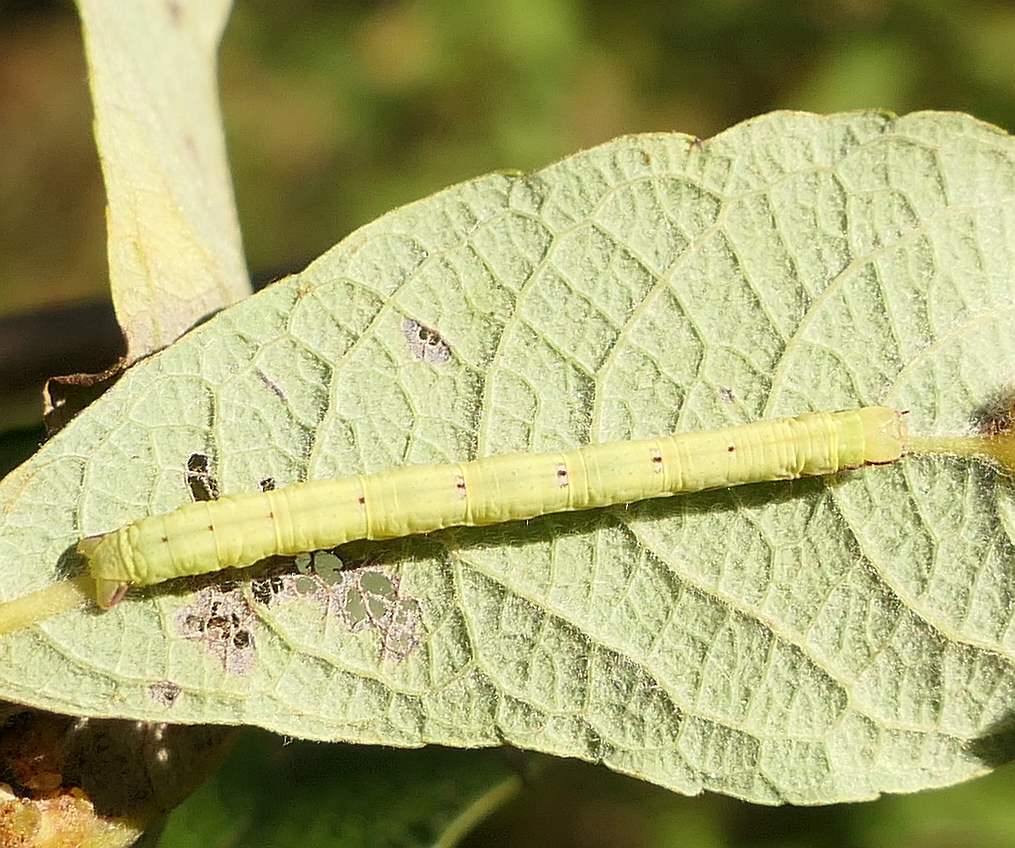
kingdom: Animalia
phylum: Arthropoda
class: Insecta
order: Lepidoptera
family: Geometridae
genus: Cabera
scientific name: Cabera erythemaria
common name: Yellow-dusted cream moth
